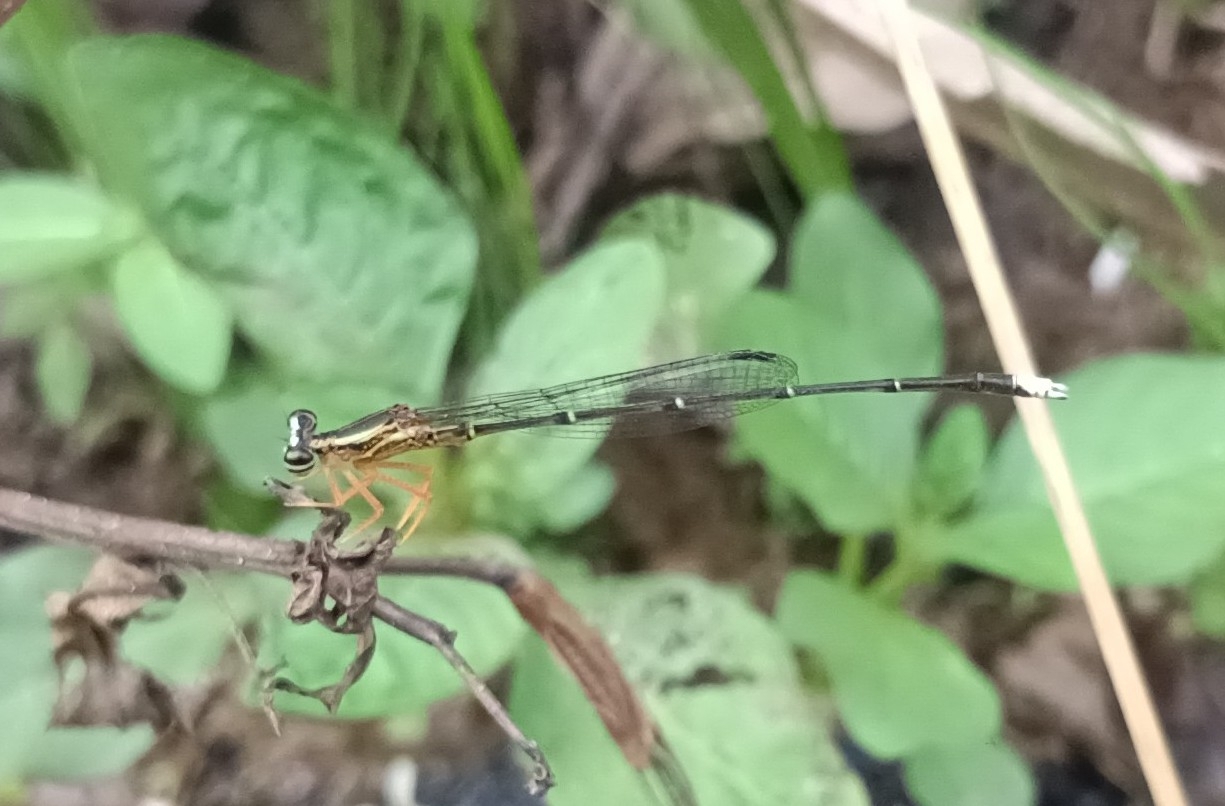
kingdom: Animalia
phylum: Arthropoda
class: Insecta
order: Odonata
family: Platycnemididae
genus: Copera
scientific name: Copera marginipes
